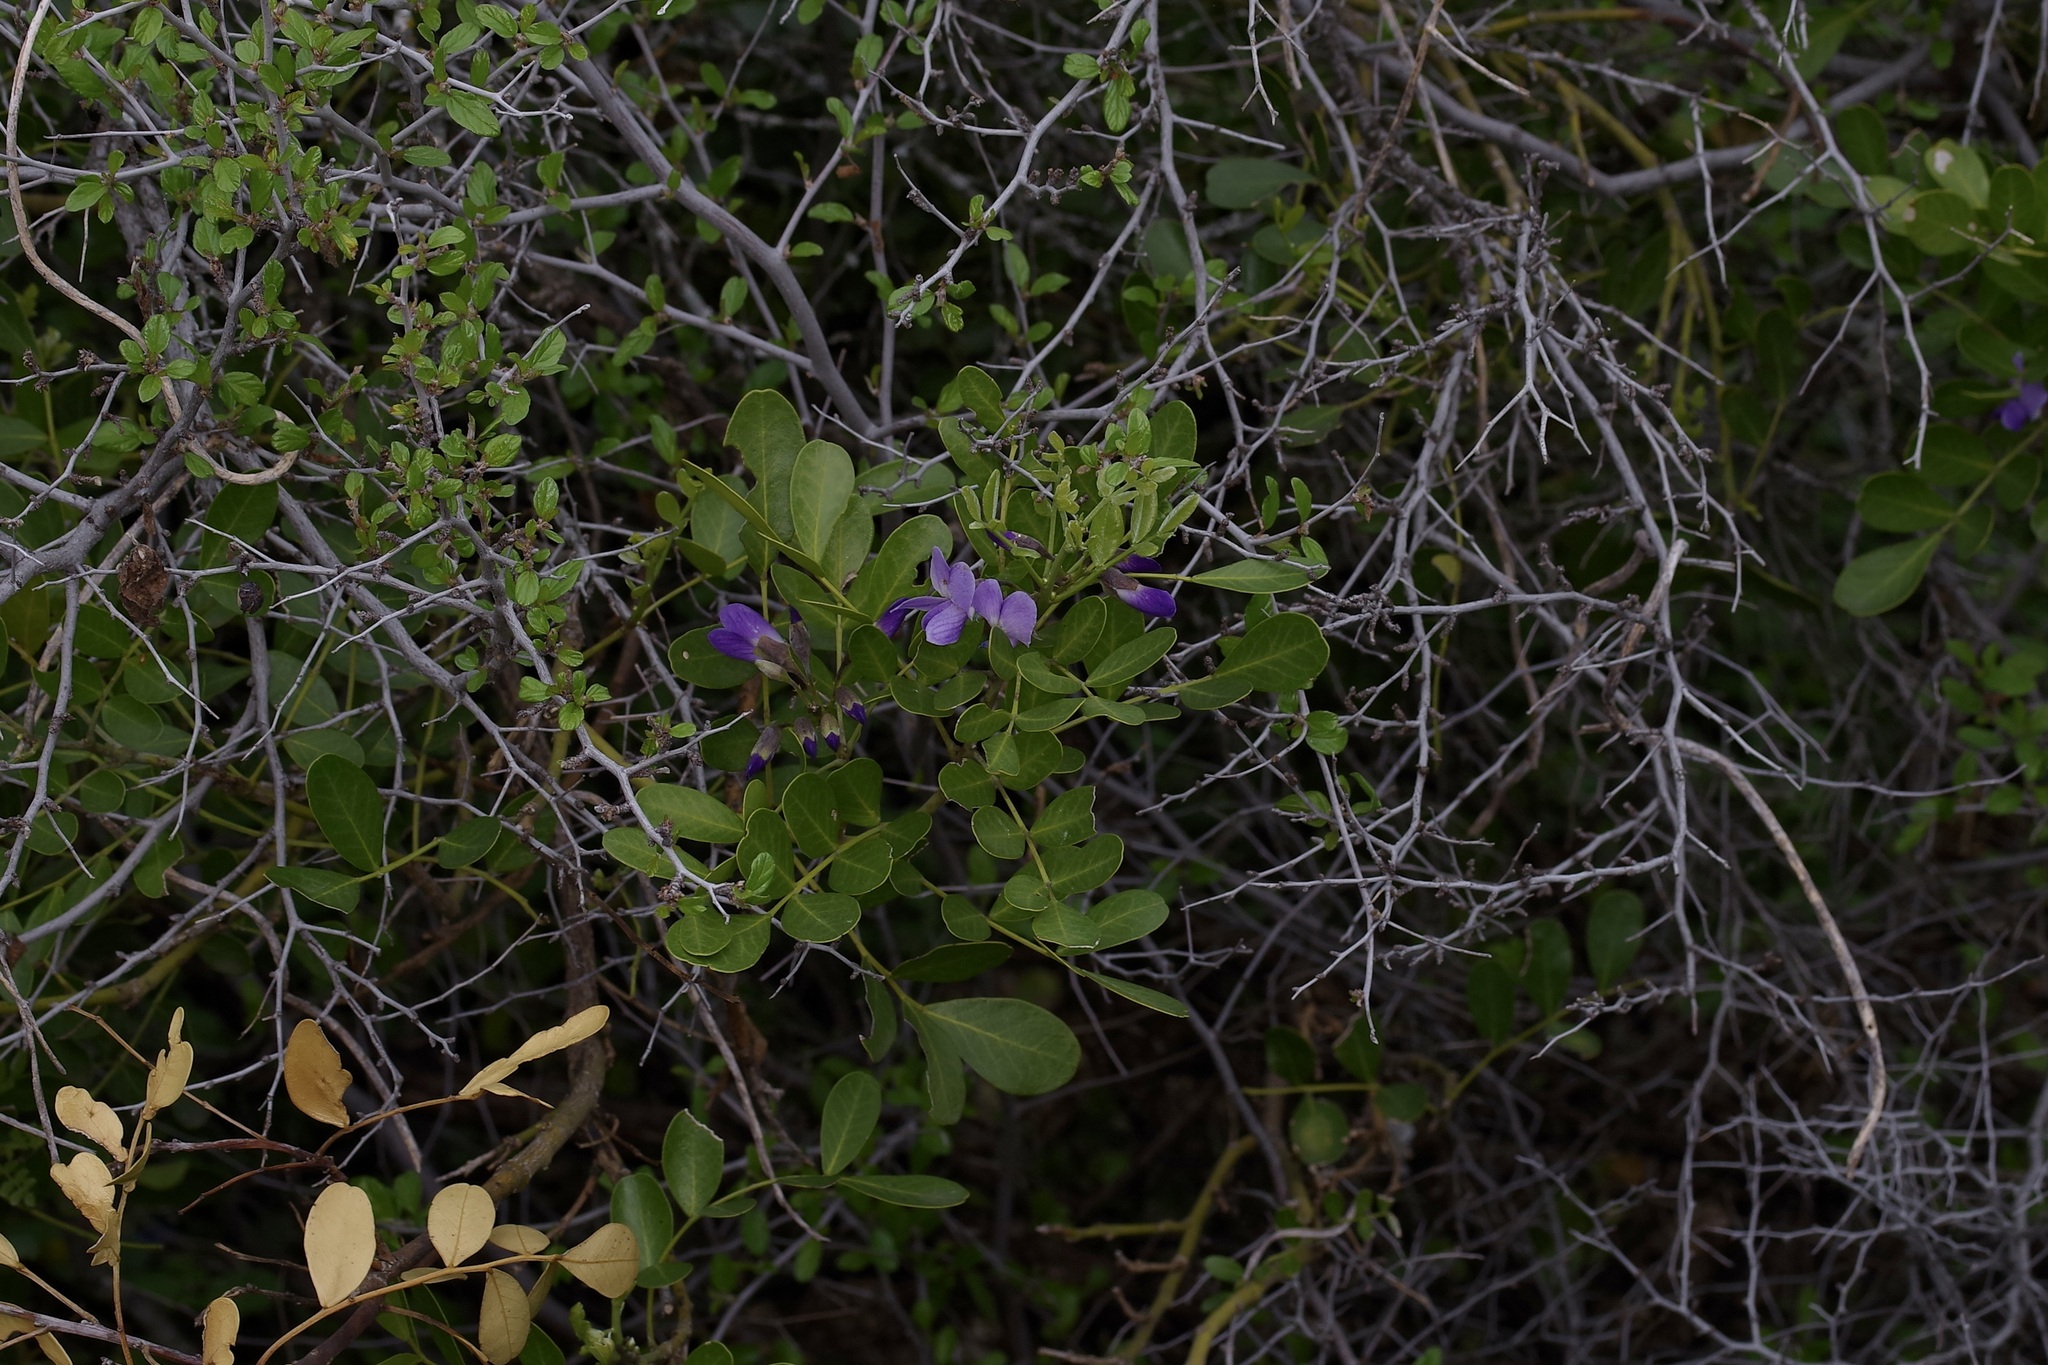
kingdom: Plantae
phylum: Tracheophyta
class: Magnoliopsida
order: Fabales
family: Fabaceae
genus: Dermatophyllum
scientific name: Dermatophyllum secundiflorum
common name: Texas-mountain-laurel
